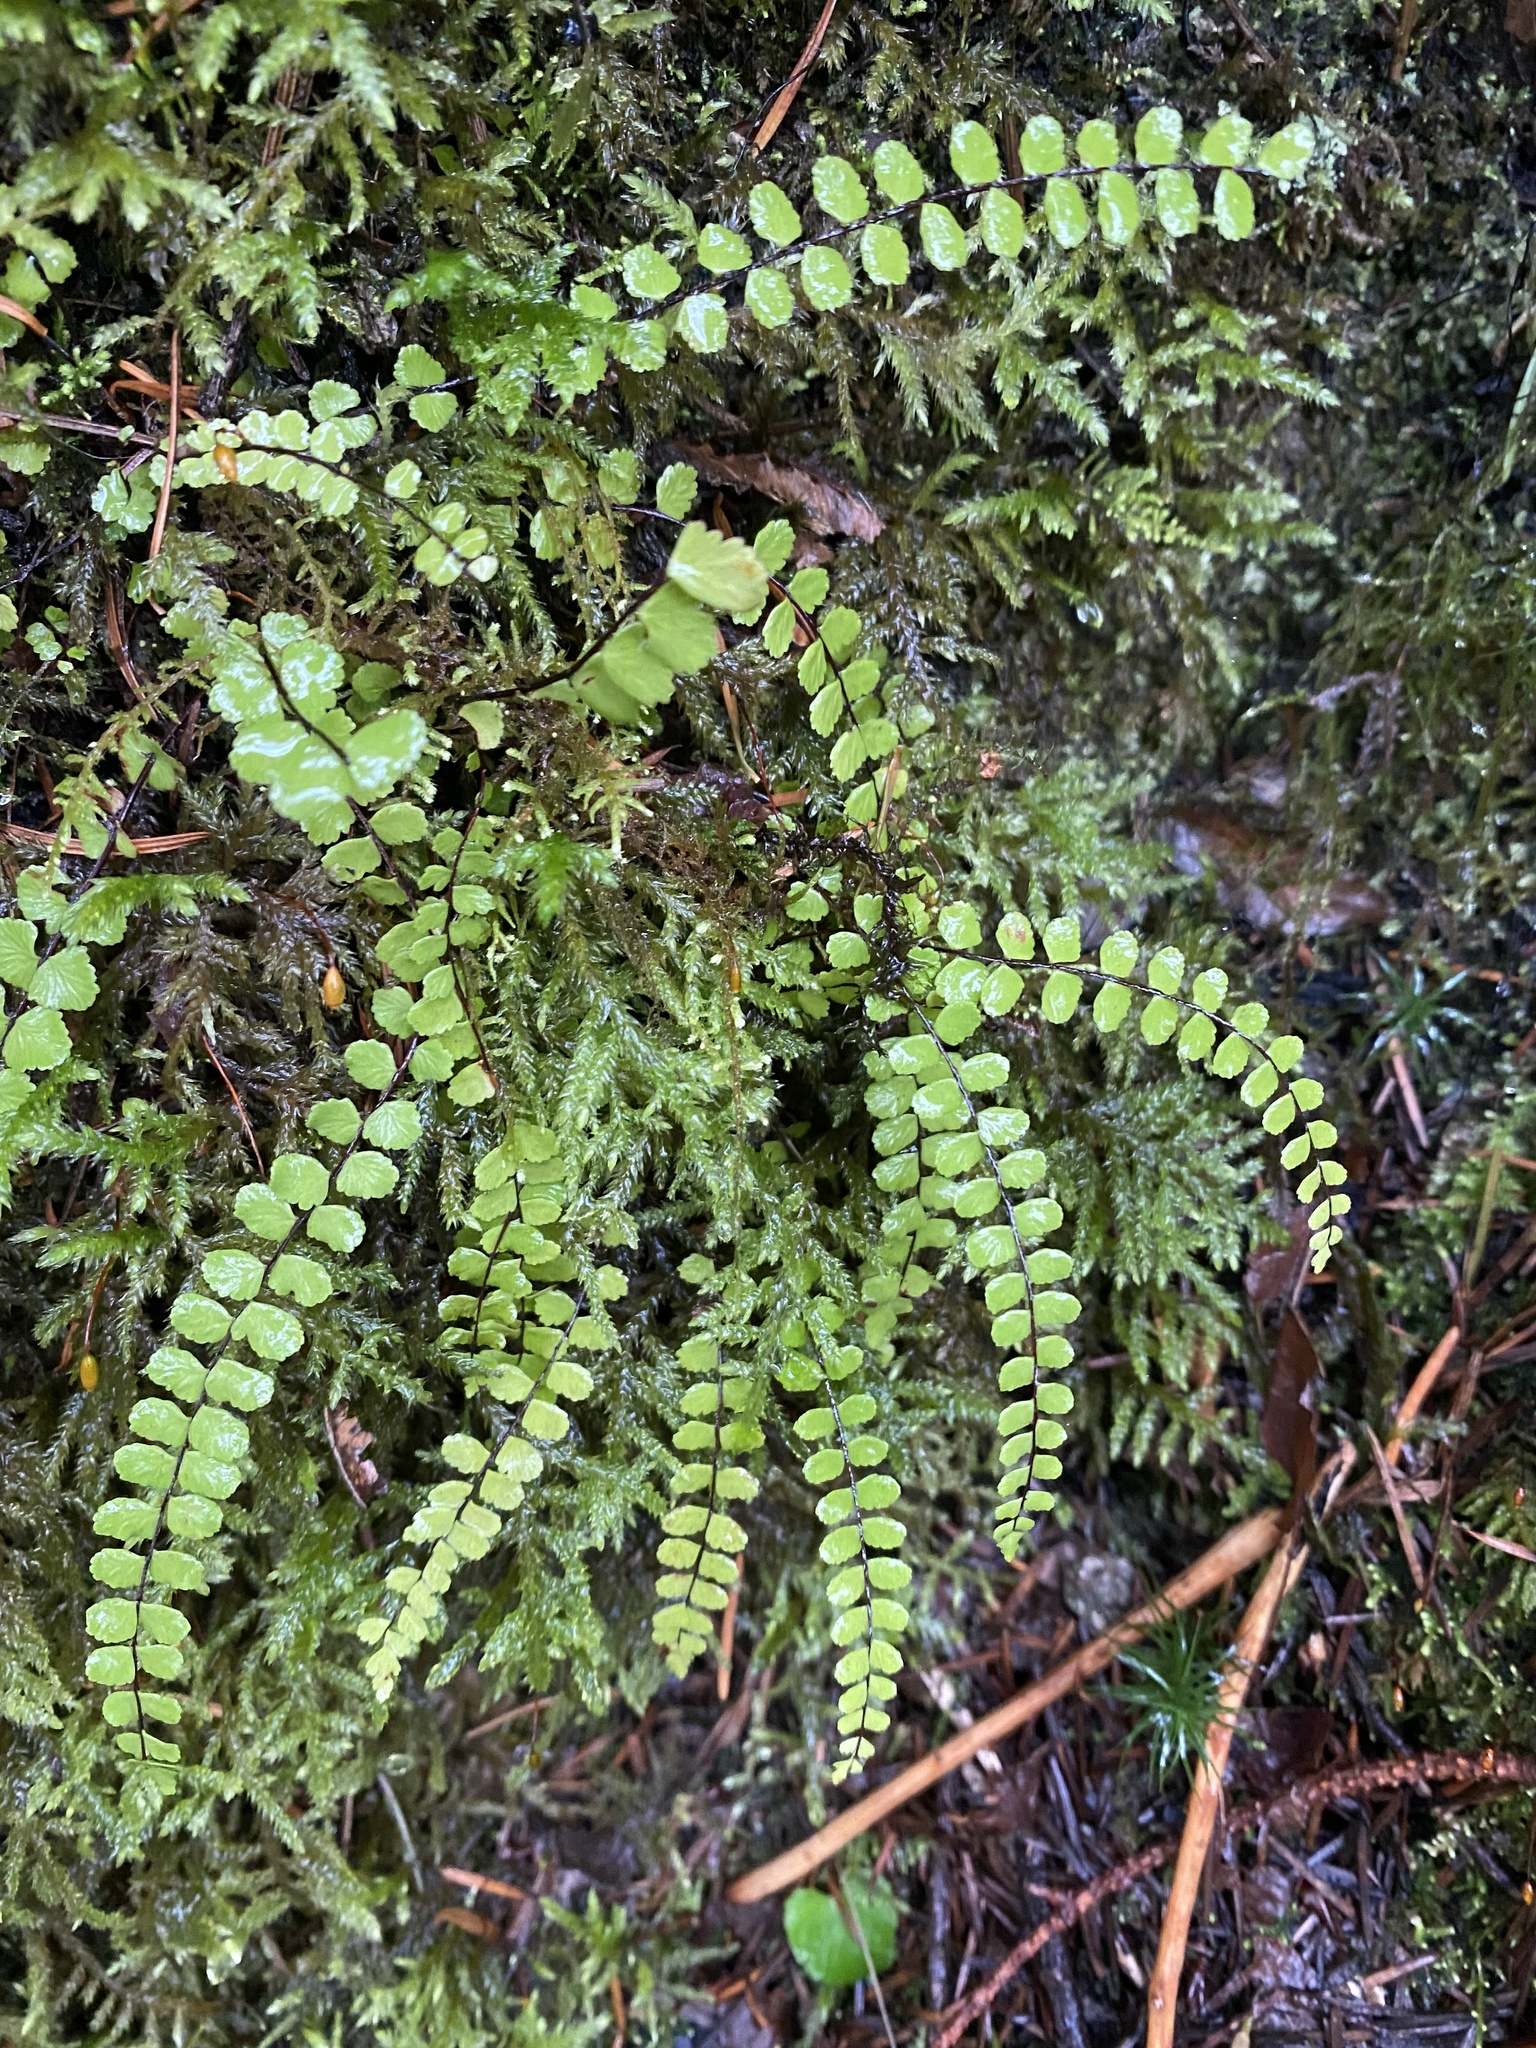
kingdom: Plantae
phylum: Tracheophyta
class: Polypodiopsida
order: Polypodiales
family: Aspleniaceae
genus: Asplenium
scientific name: Asplenium trichomanes
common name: Maidenhair spleenwort
